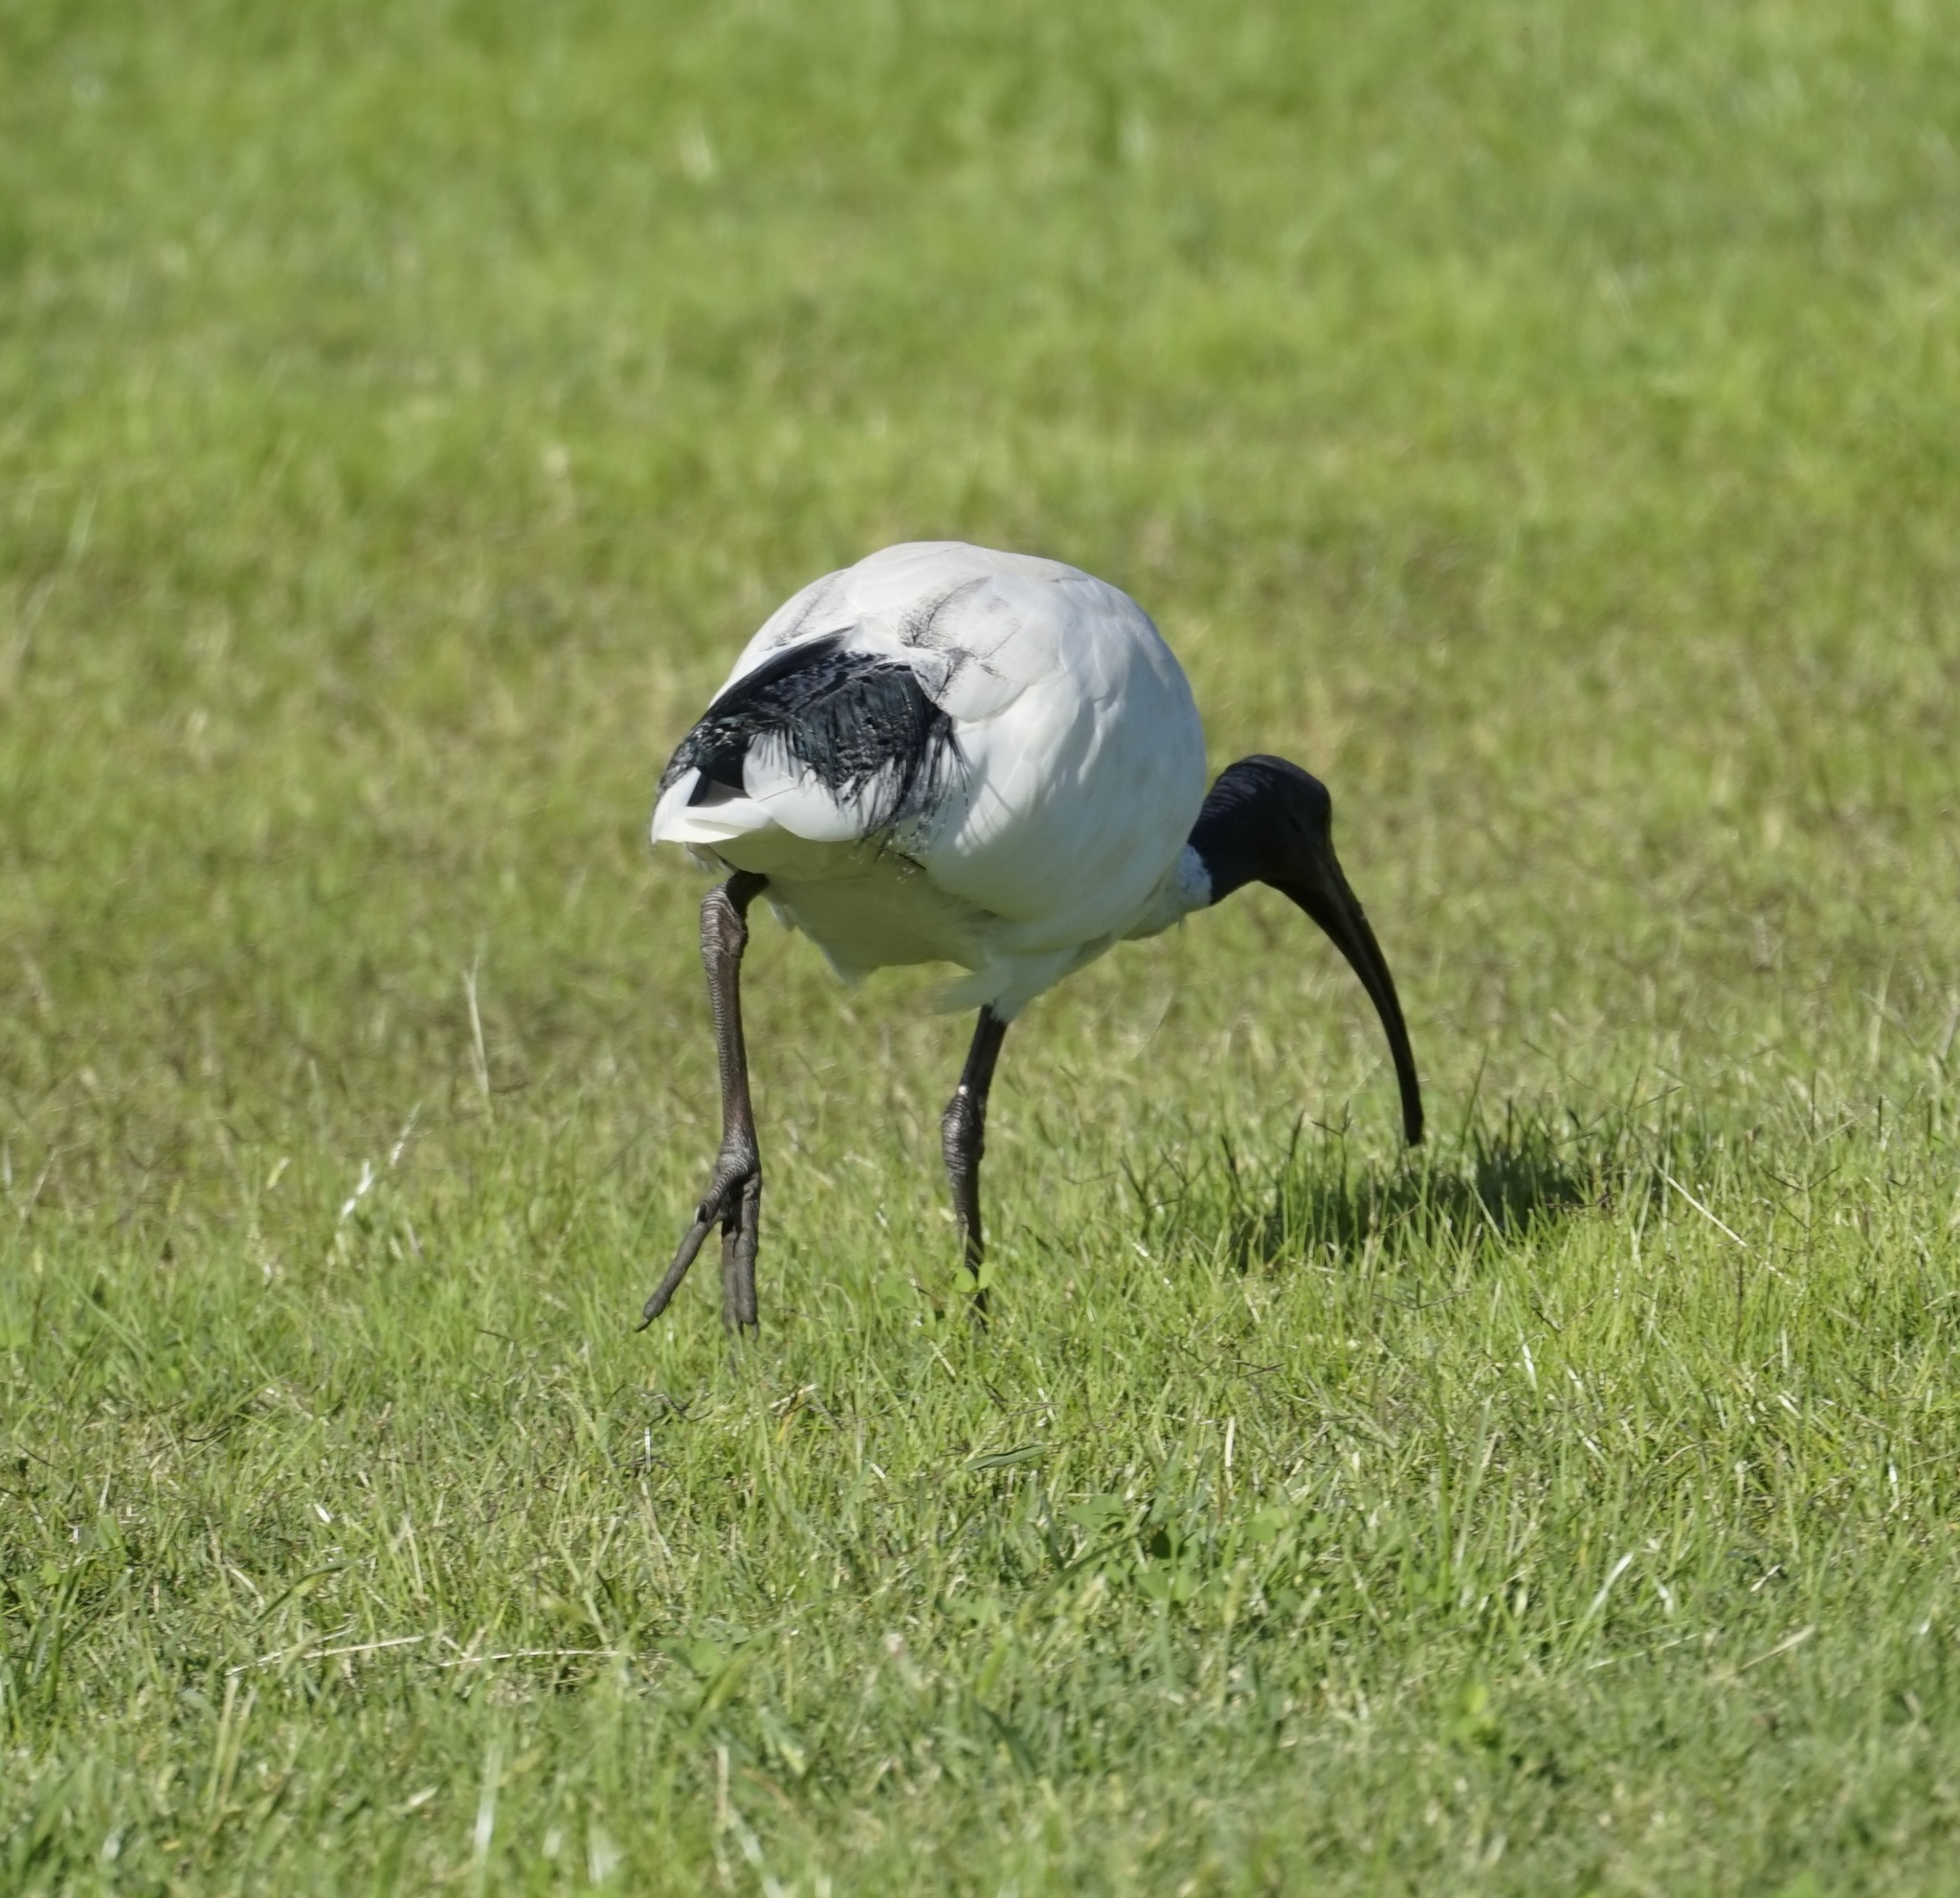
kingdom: Animalia
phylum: Chordata
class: Aves
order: Pelecaniformes
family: Threskiornithidae
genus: Threskiornis
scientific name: Threskiornis molucca
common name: Australian white ibis
